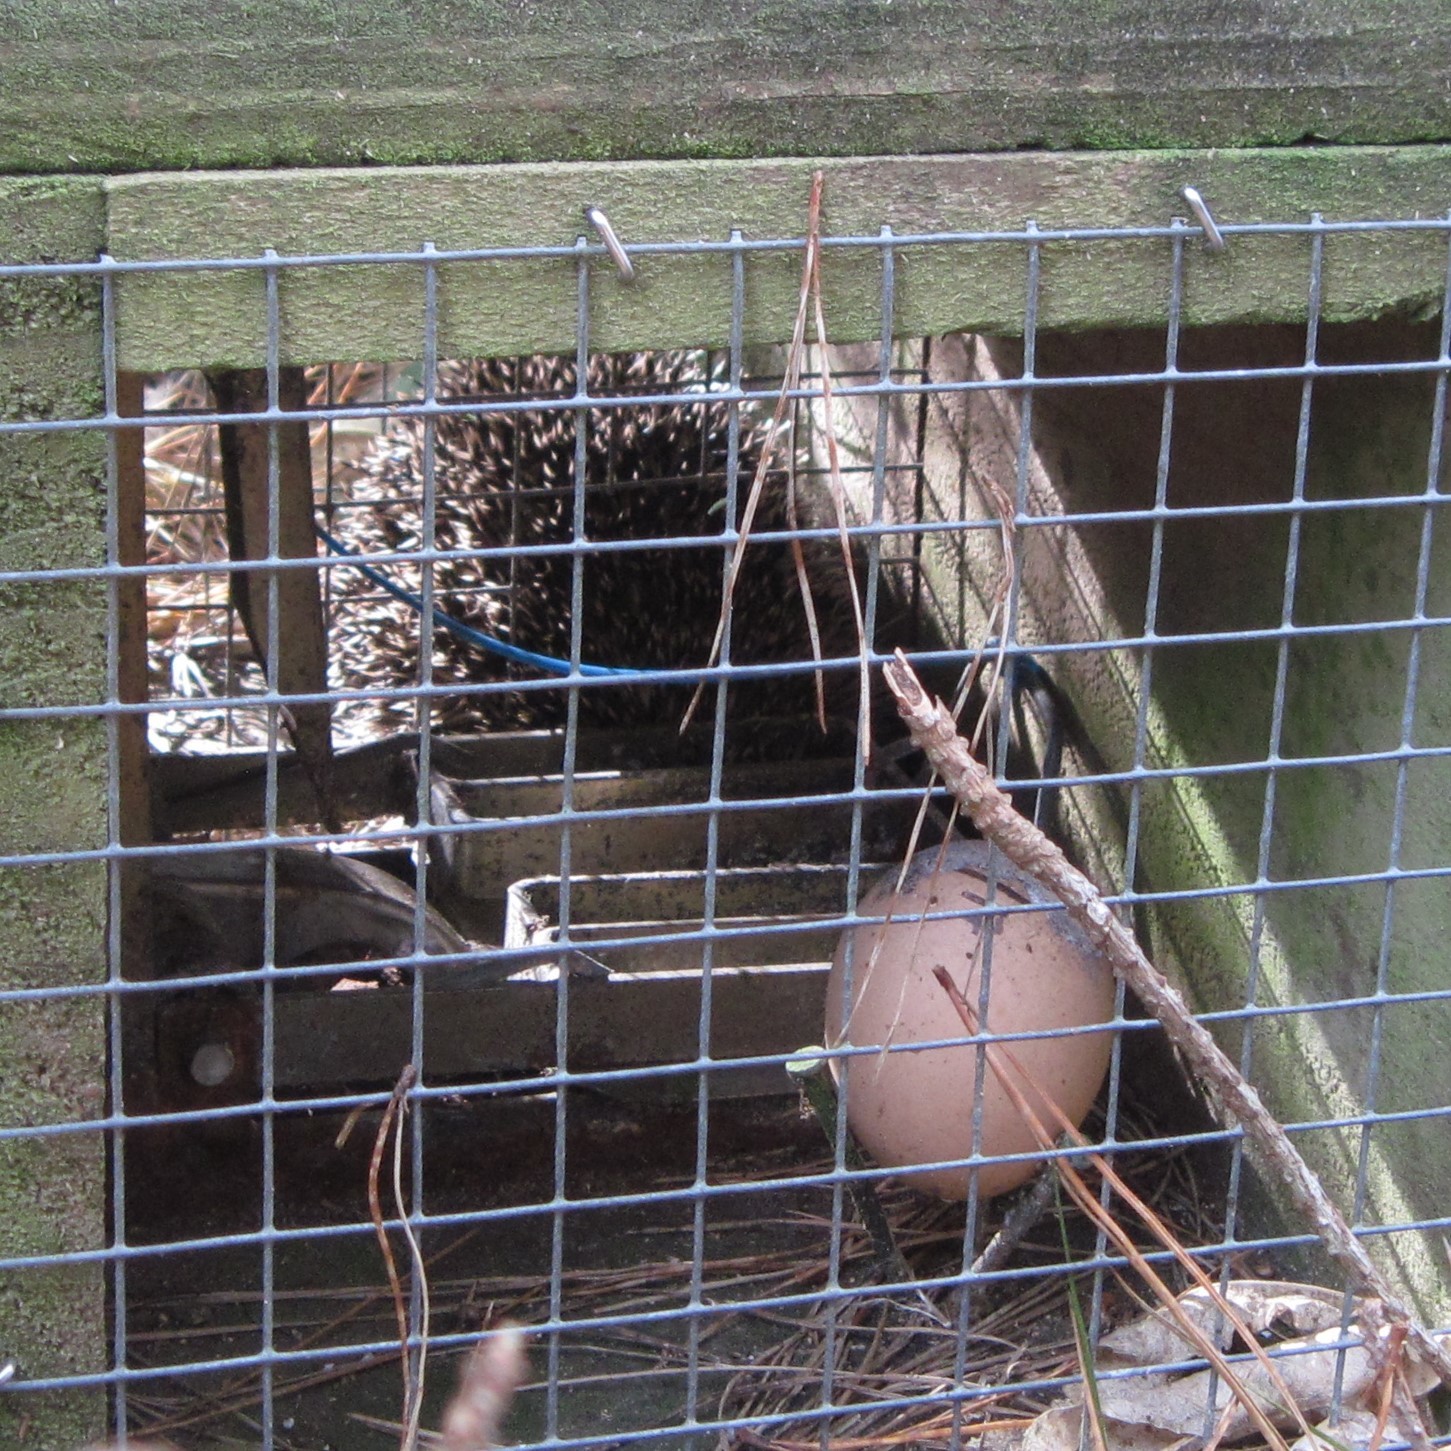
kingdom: Animalia
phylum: Chordata
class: Mammalia
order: Erinaceomorpha
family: Erinaceidae
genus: Erinaceus
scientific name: Erinaceus europaeus
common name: West european hedgehog
